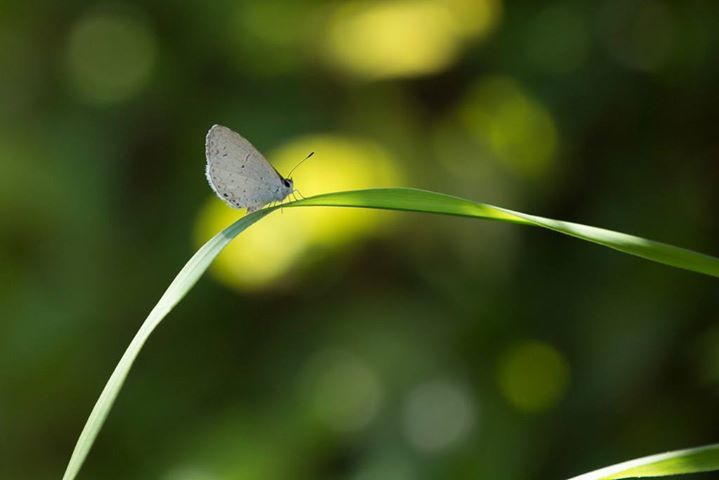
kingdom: Animalia
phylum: Arthropoda
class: Insecta
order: Lepidoptera
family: Lycaenidae
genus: Cyaniris
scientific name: Cyaniris neglecta
